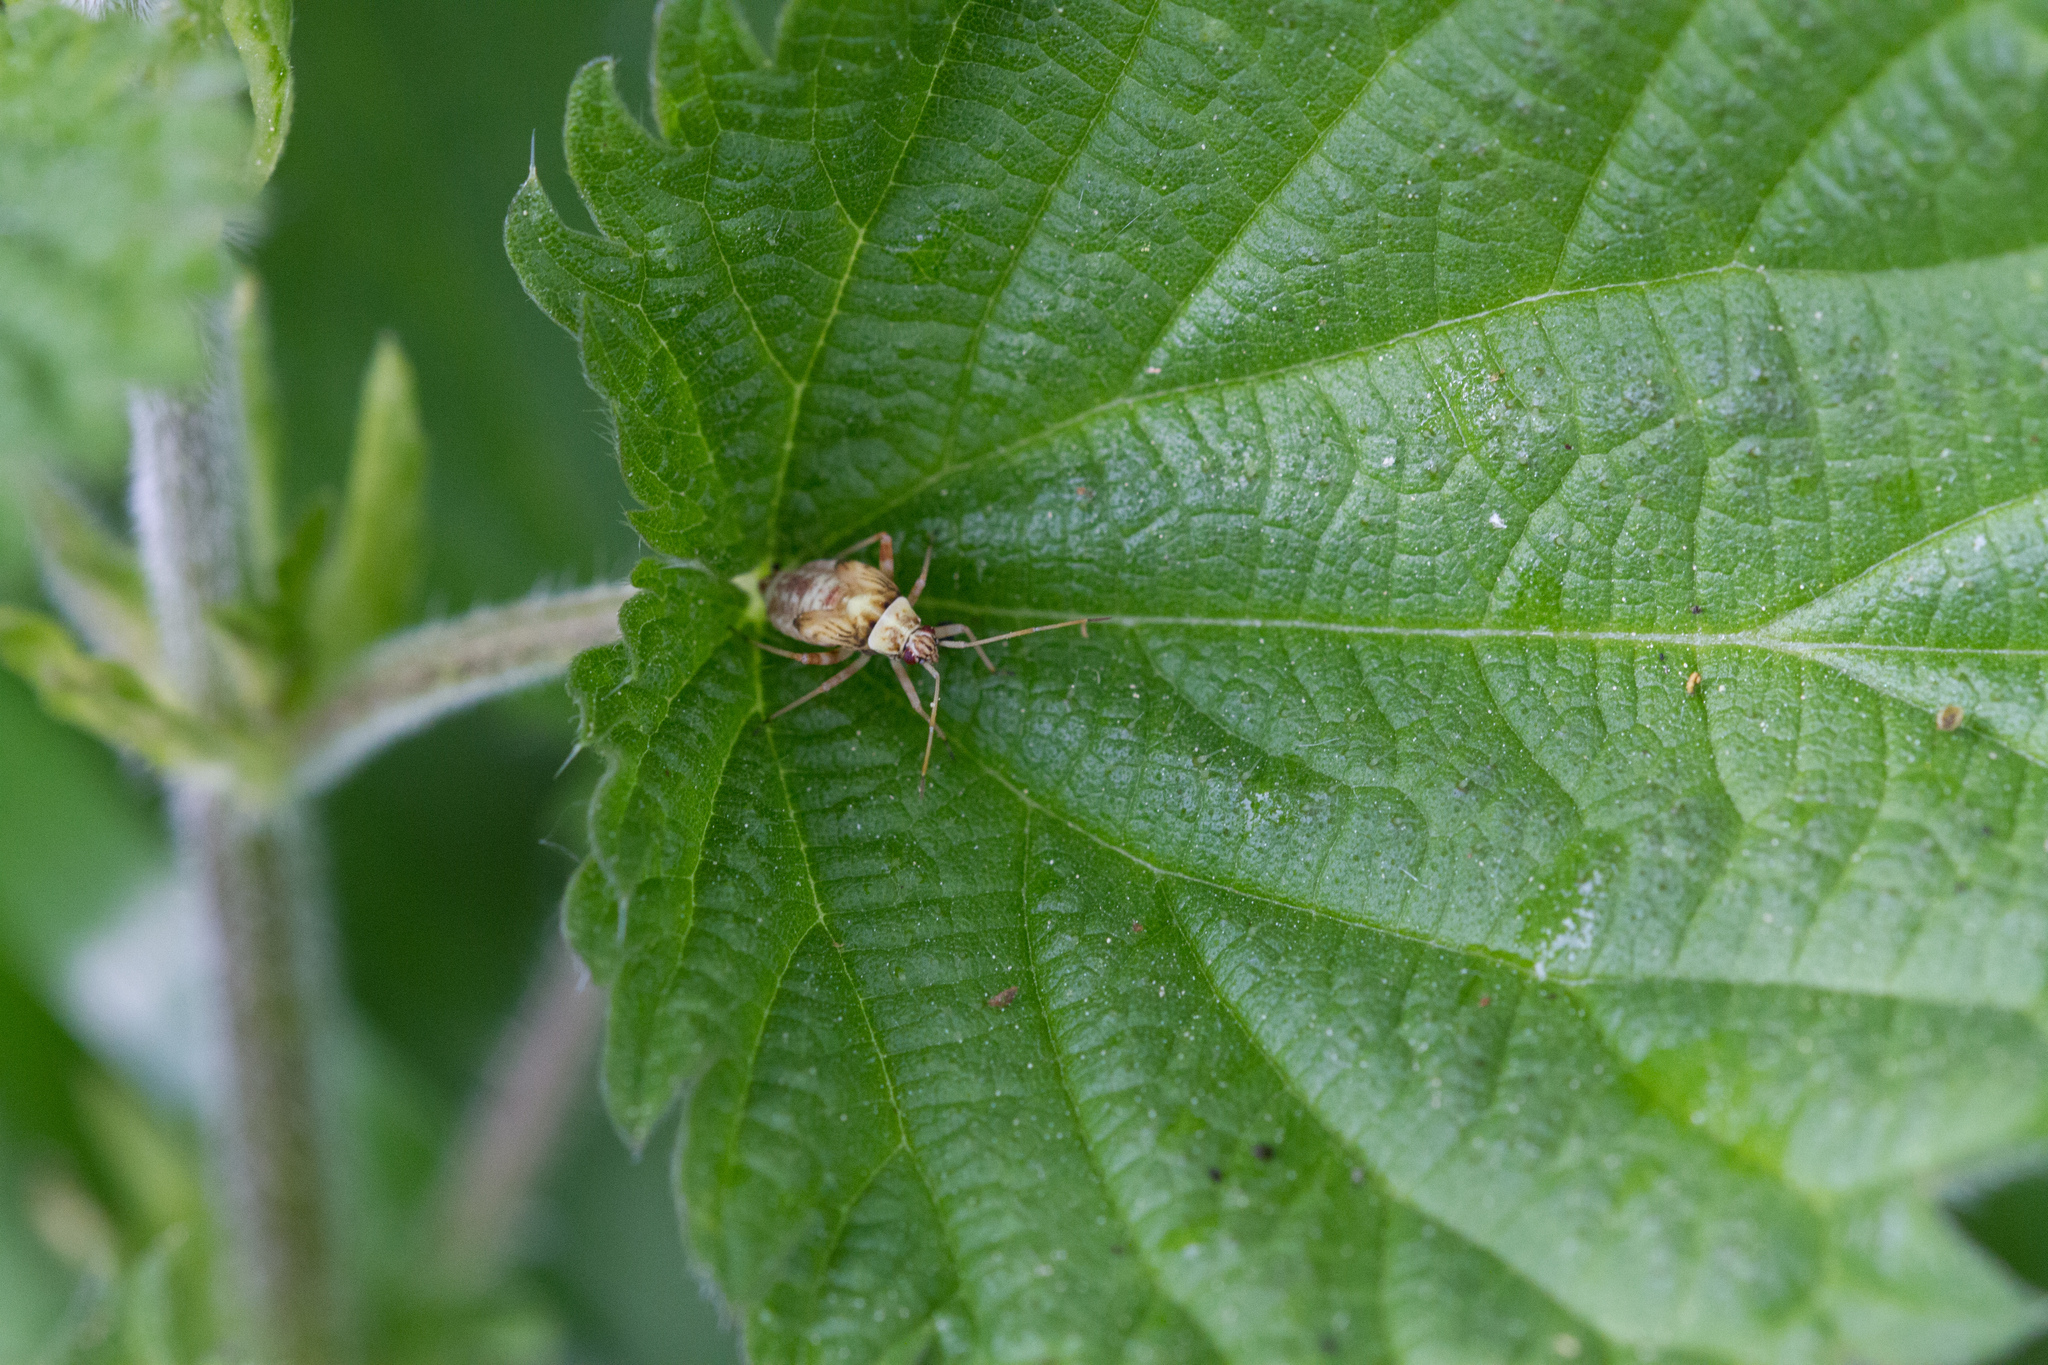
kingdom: Animalia
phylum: Arthropoda
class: Insecta
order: Hemiptera
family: Miridae
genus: Rhabdomiris
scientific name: Rhabdomiris striatellus
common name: Plant bug
